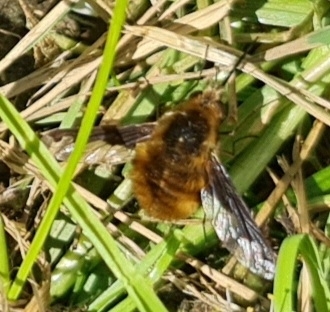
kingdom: Animalia
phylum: Arthropoda
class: Insecta
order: Diptera
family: Bombyliidae
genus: Bombylius
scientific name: Bombylius major
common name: Bee fly
